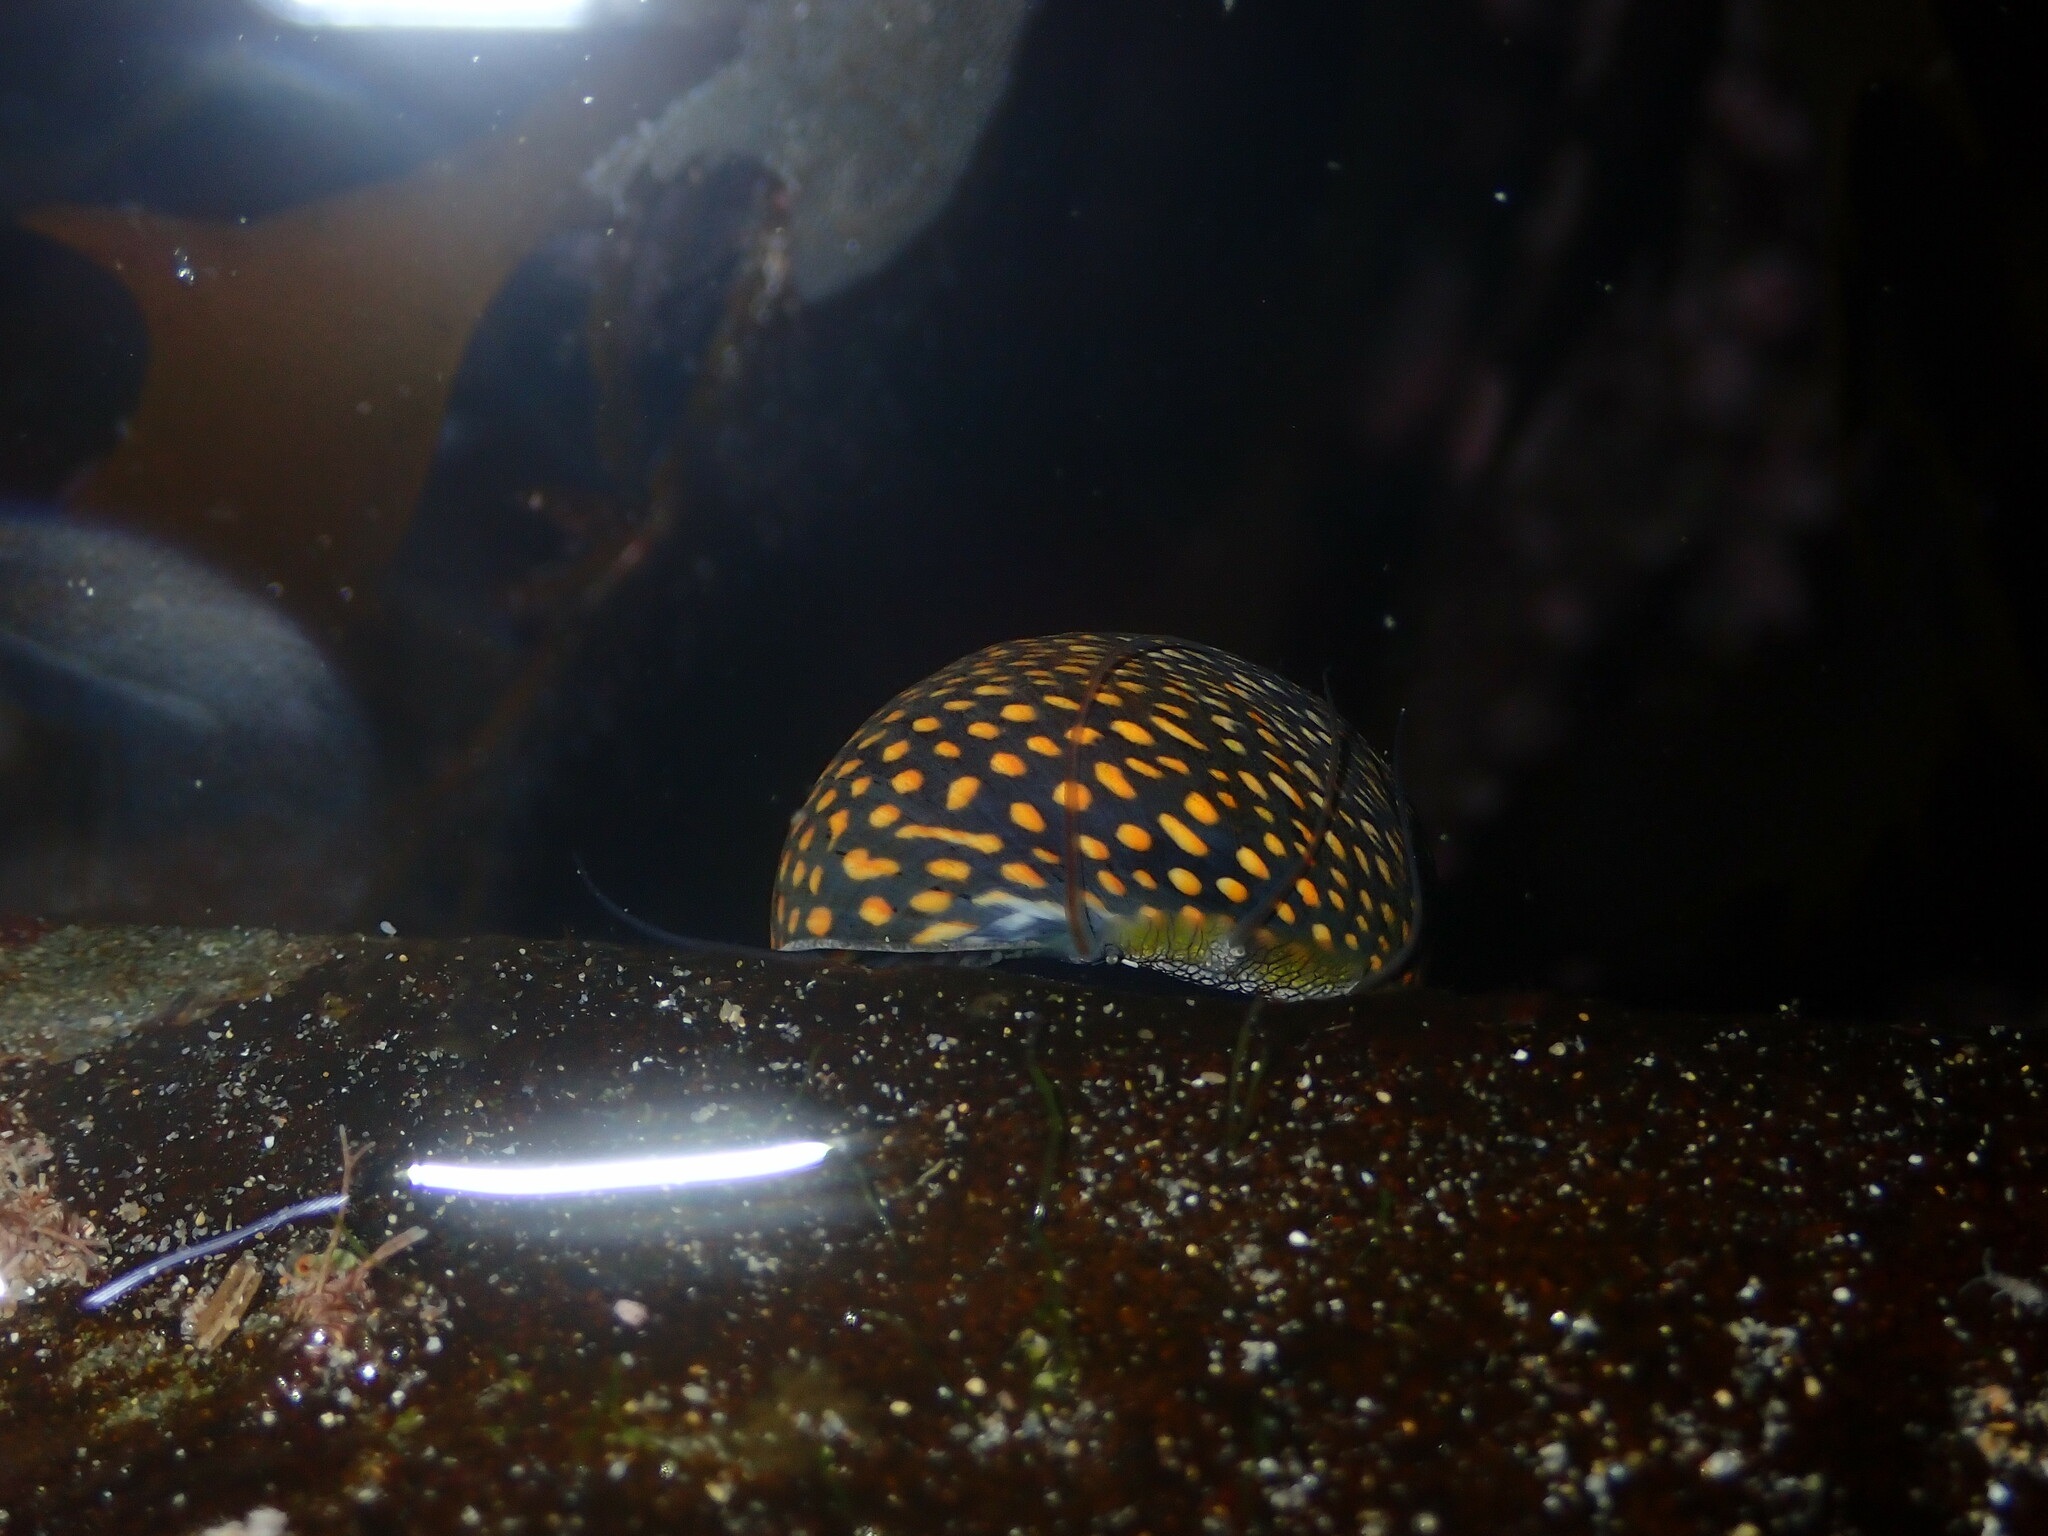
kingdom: Animalia
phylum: Mollusca
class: Gastropoda
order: Trochida
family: Trochidae
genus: Chlorodiloma
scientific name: Chlorodiloma odontis
